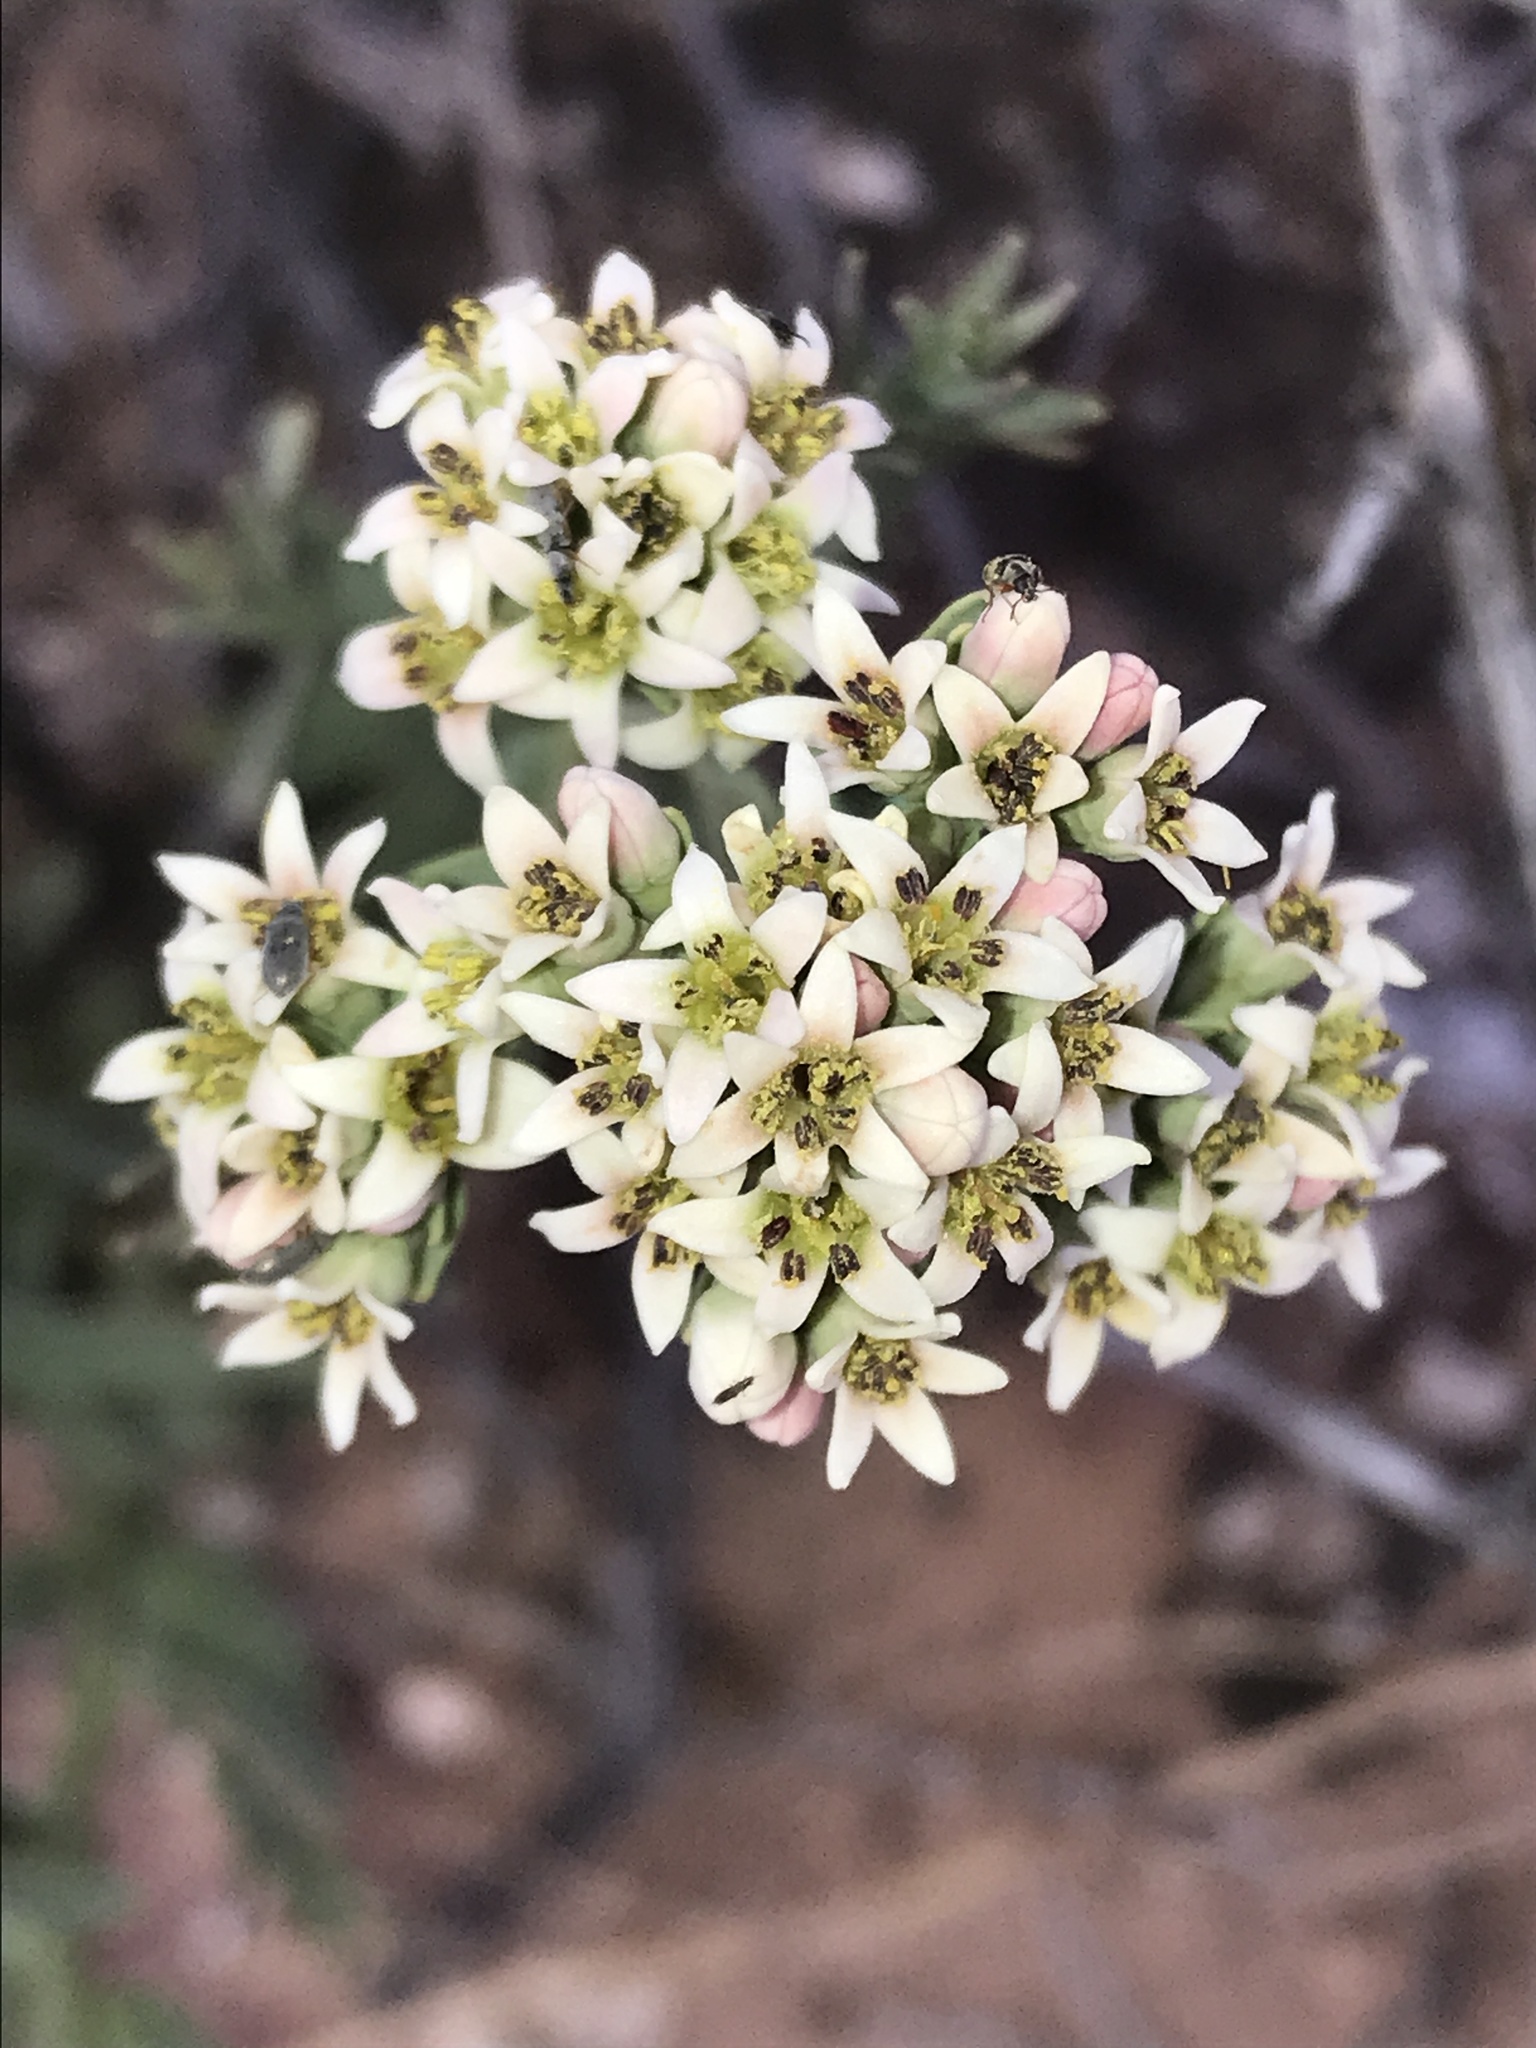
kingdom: Plantae
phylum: Tracheophyta
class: Magnoliopsida
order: Santalales
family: Comandraceae
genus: Comandra
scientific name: Comandra umbellata
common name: Bastard toadflax
